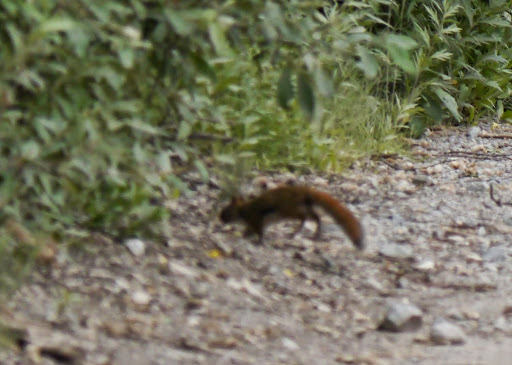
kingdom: Animalia
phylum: Chordata
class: Mammalia
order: Rodentia
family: Sciuridae
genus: Tamiasciurus
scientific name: Tamiasciurus hudsonicus
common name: Red squirrel
